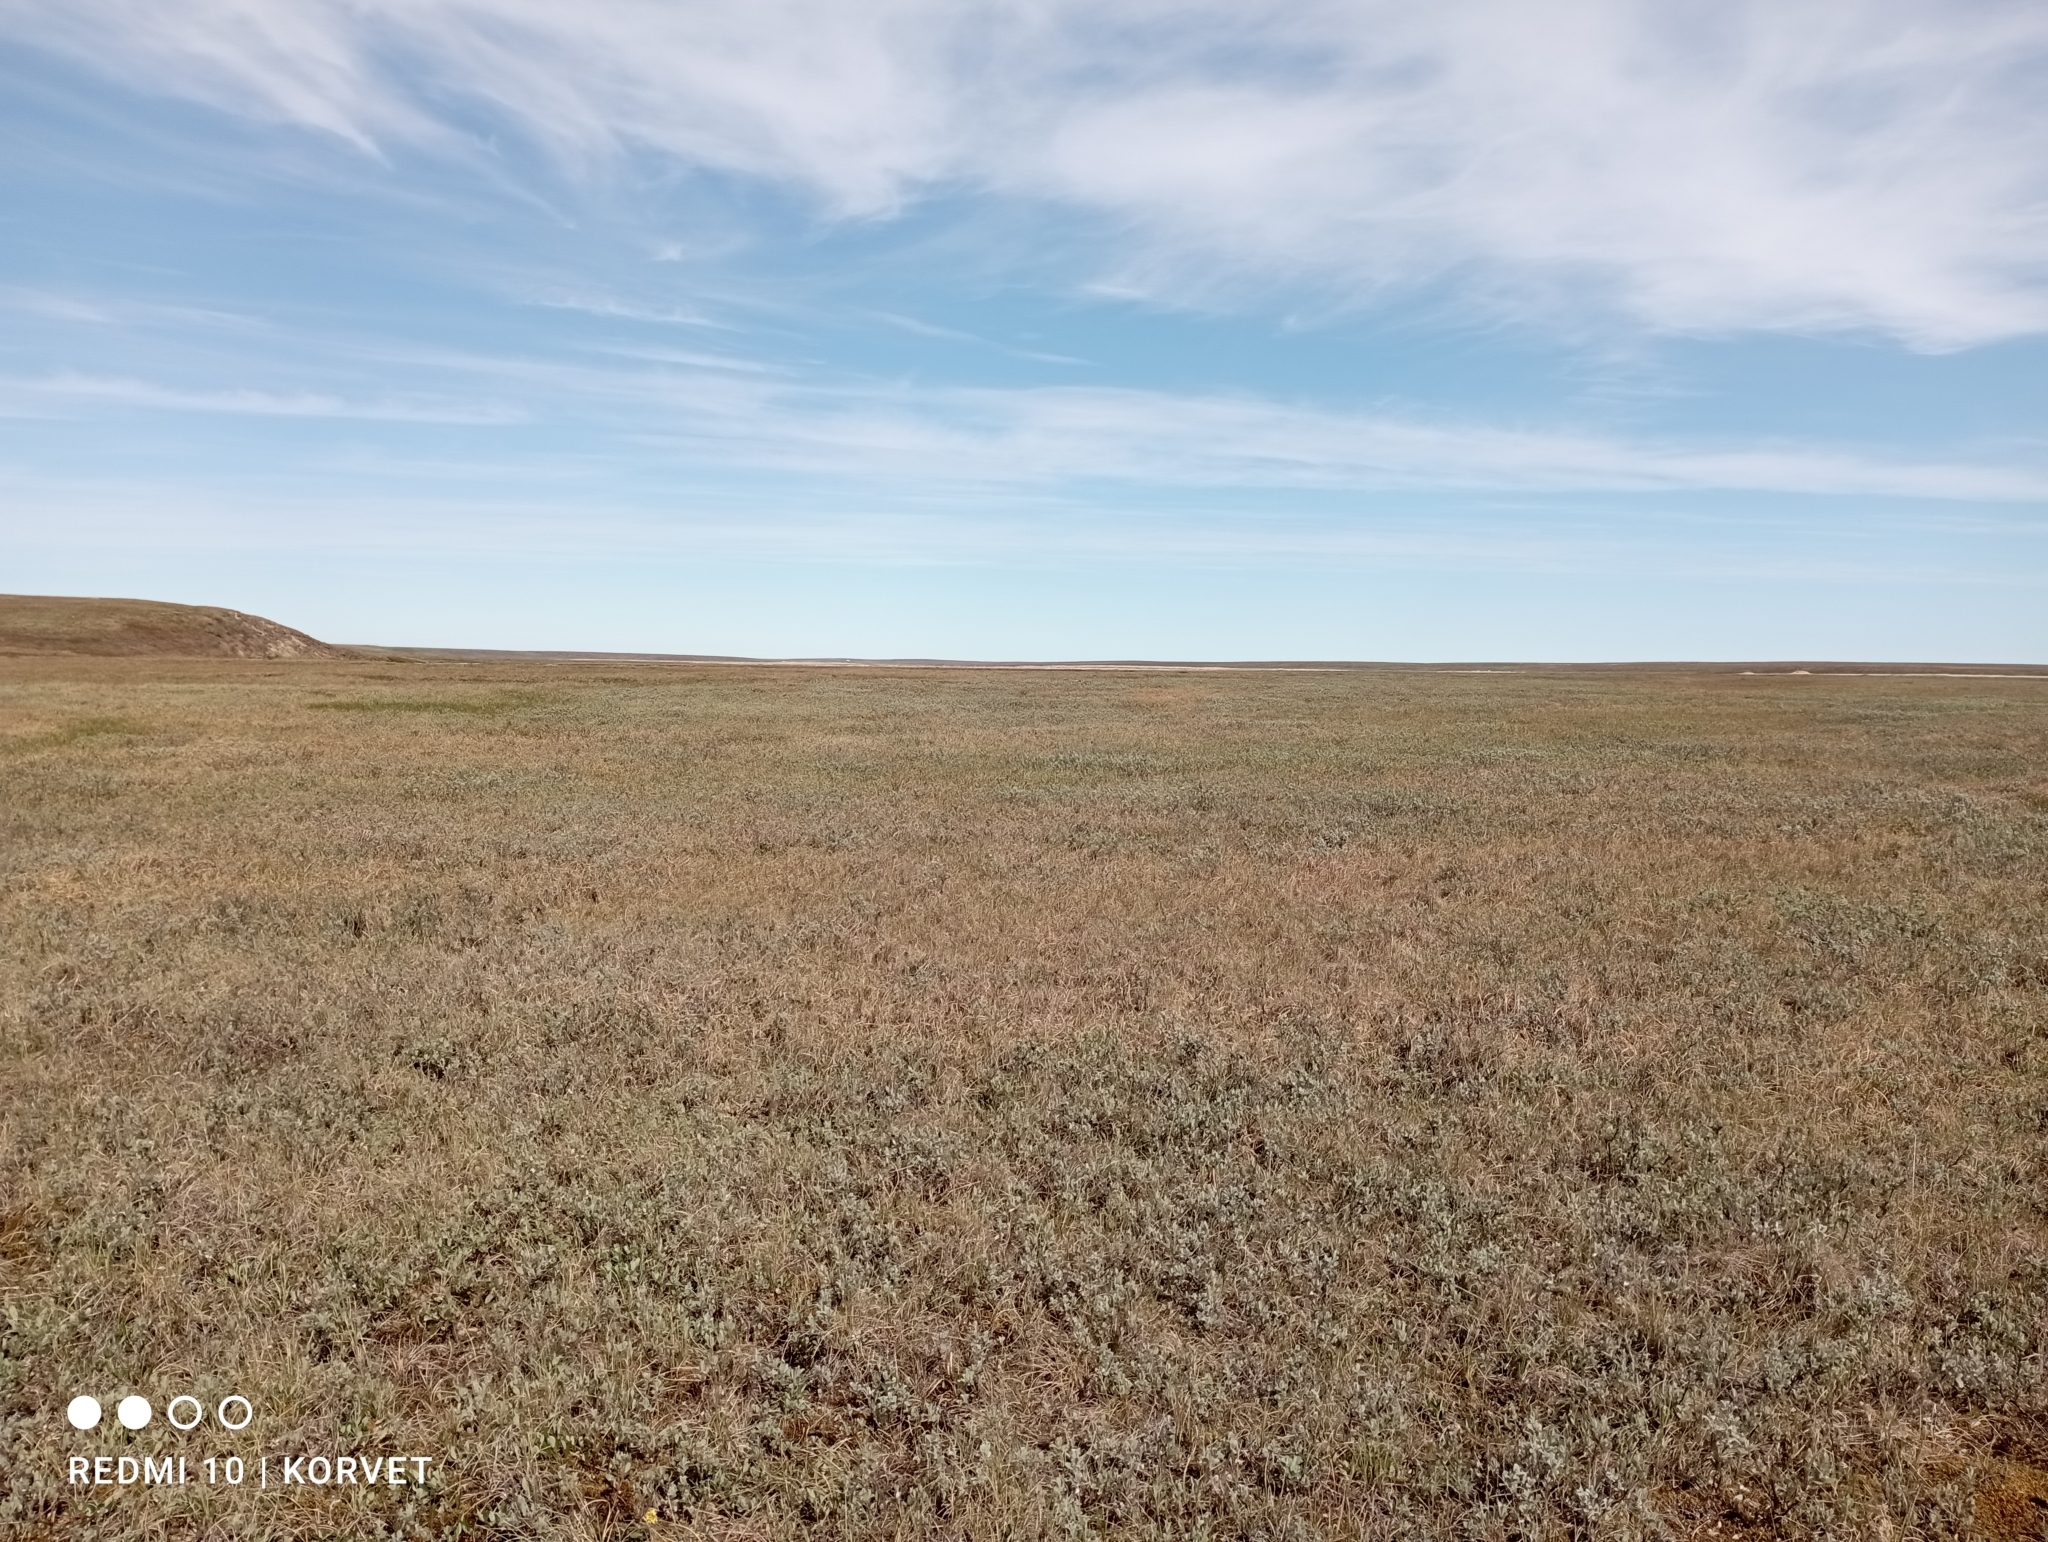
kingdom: Plantae
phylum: Tracheophyta
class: Magnoliopsida
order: Apiales
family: Apiaceae
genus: Pachypleurum
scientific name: Pachypleurum mutellinoides
